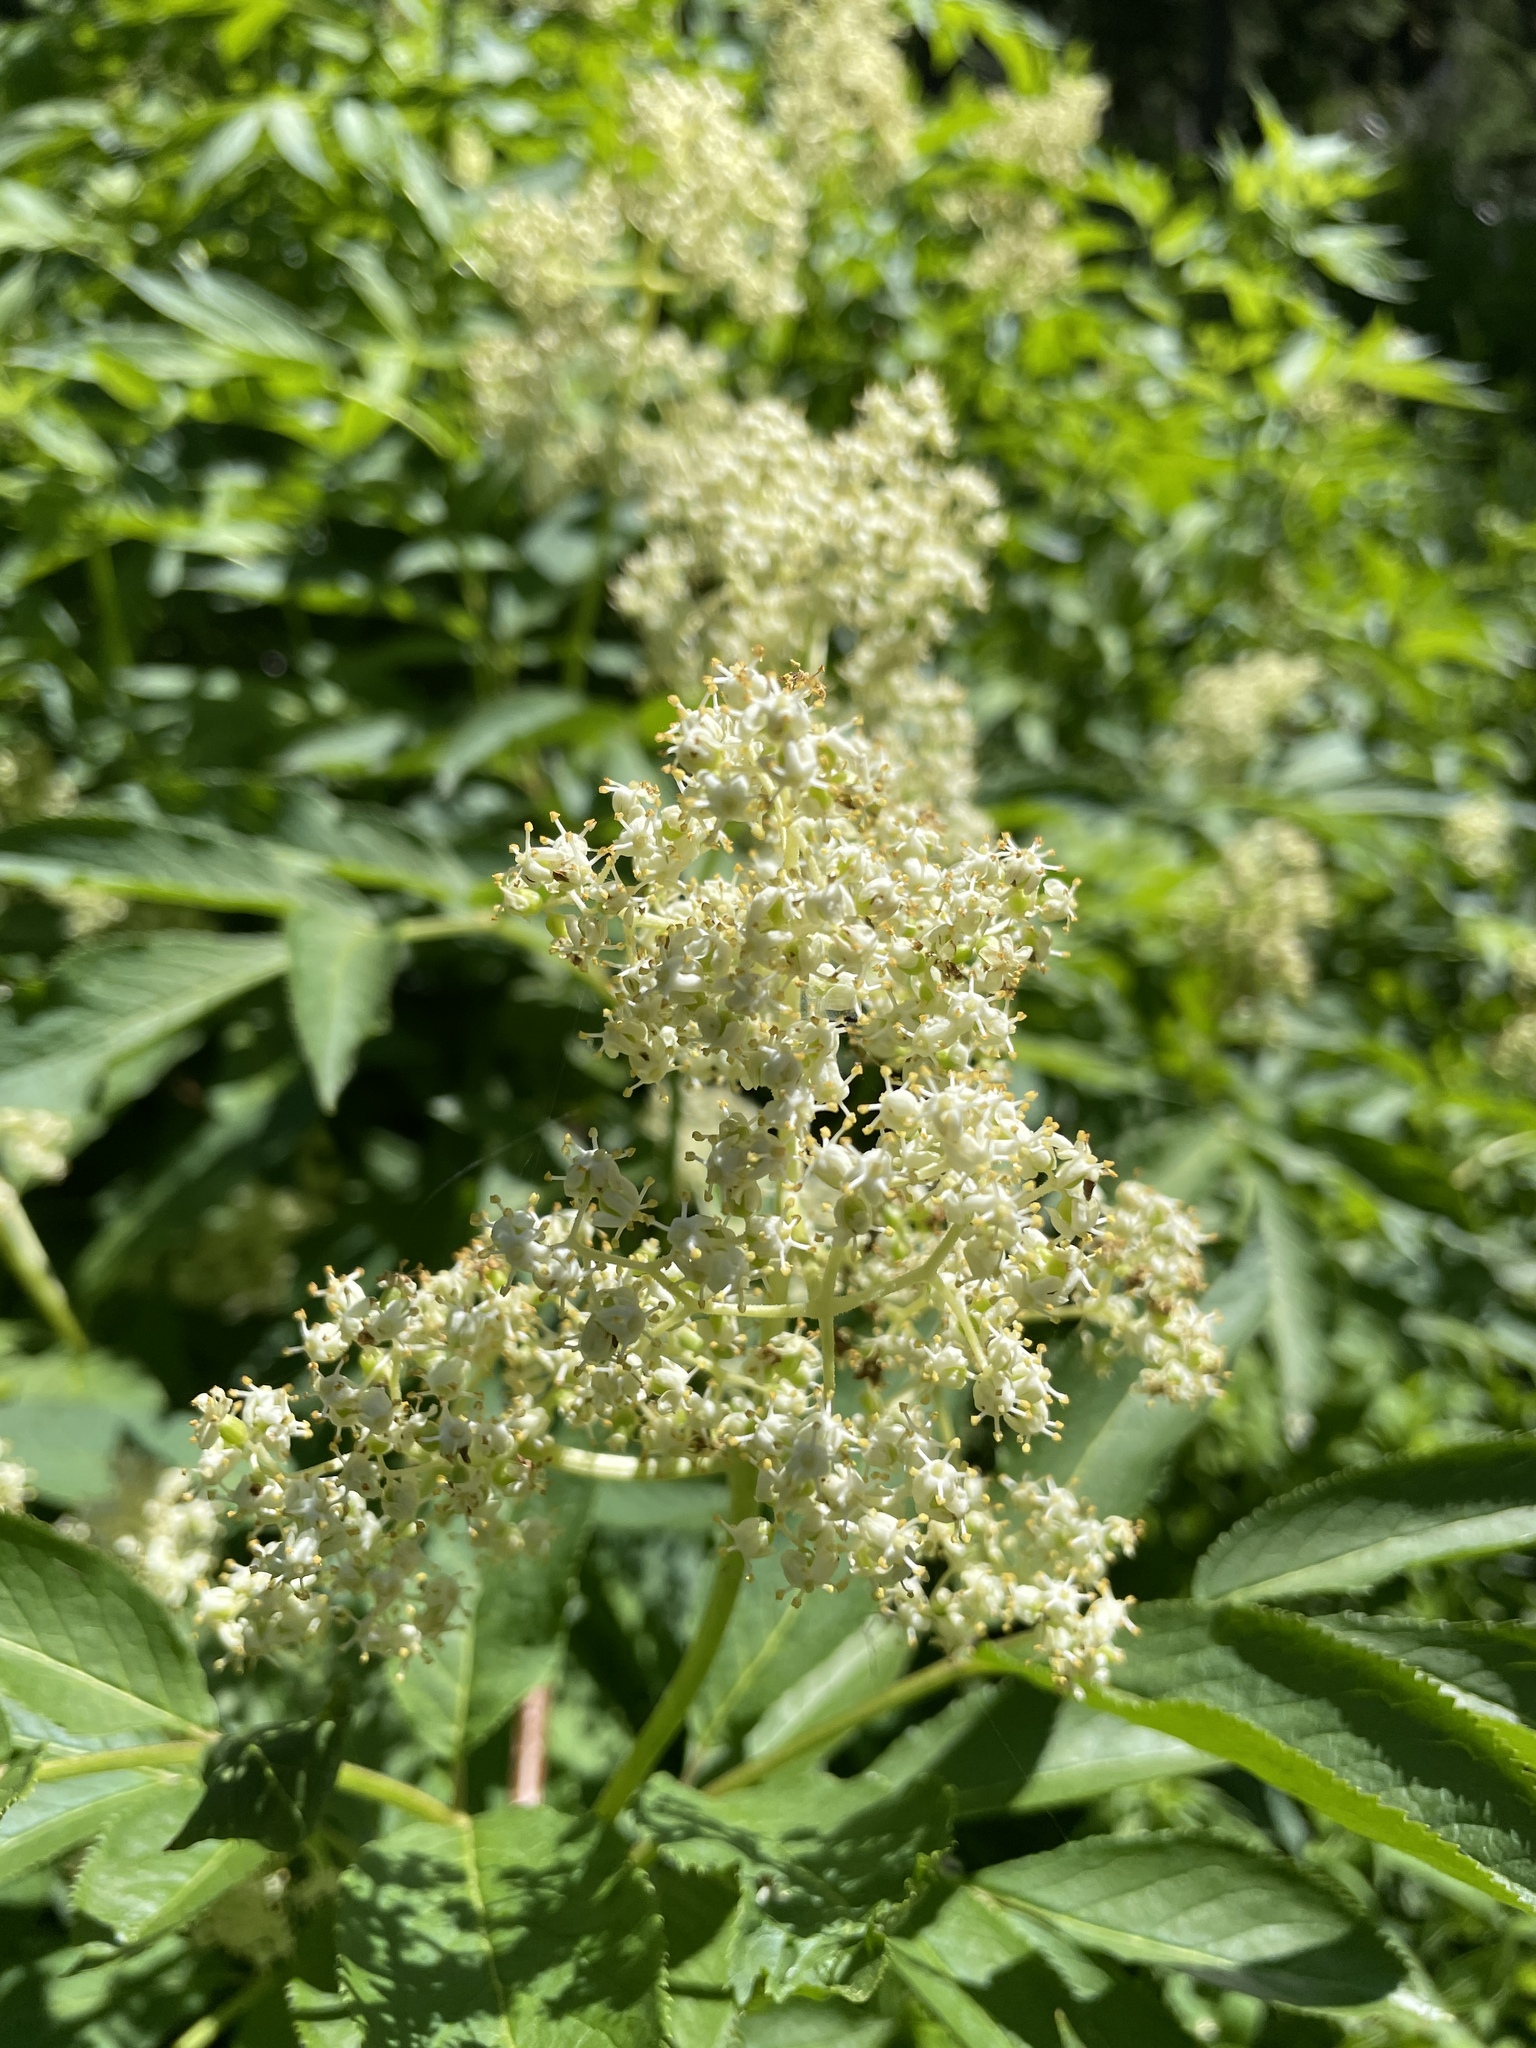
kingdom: Plantae
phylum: Tracheophyta
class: Magnoliopsida
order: Dipsacales
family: Viburnaceae
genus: Sambucus
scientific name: Sambucus racemosa
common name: Red-berried elder
